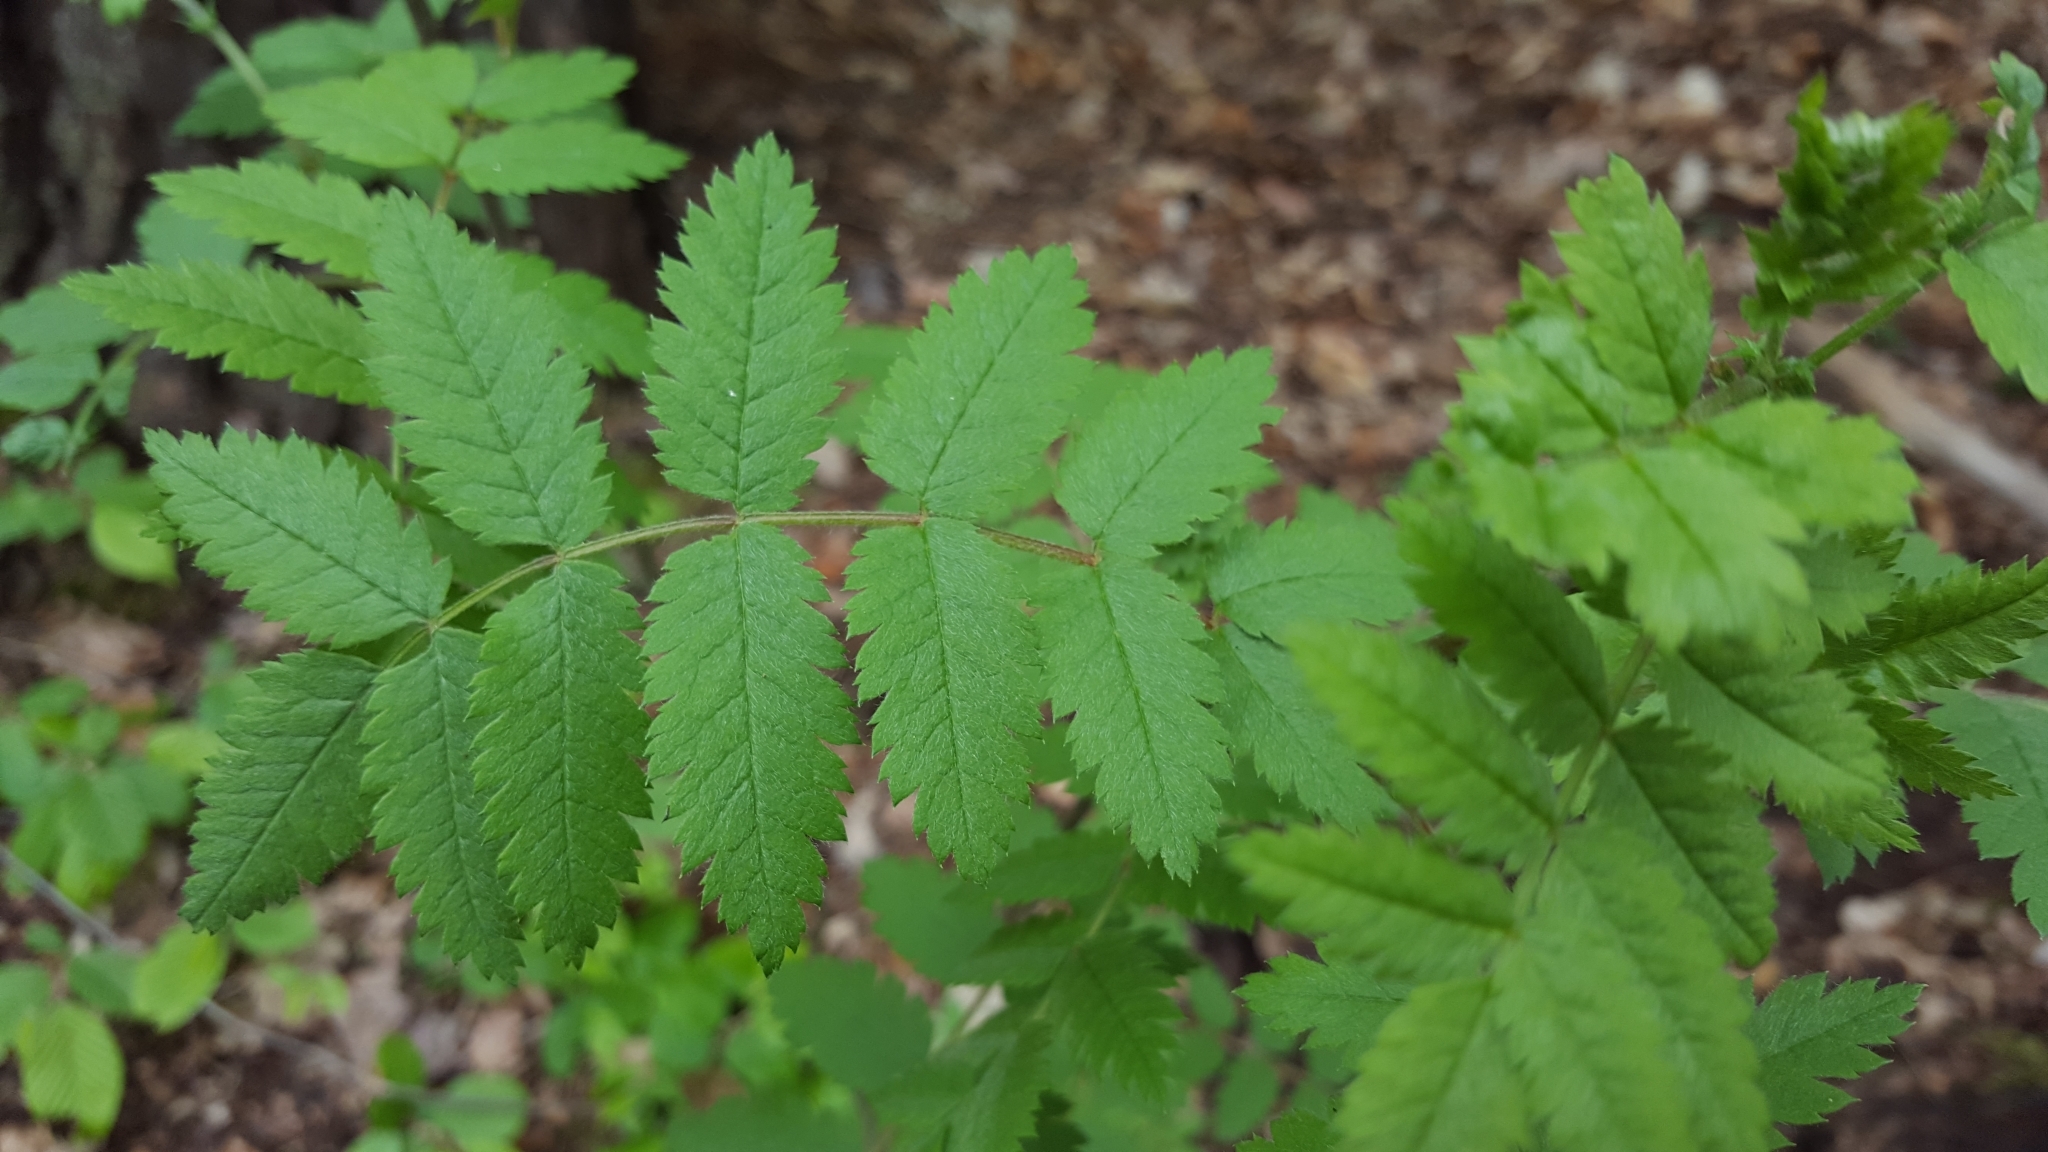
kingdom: Plantae
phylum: Tracheophyta
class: Magnoliopsida
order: Rosales
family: Rosaceae
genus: Sorbus
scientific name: Sorbus aucuparia
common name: Rowan
